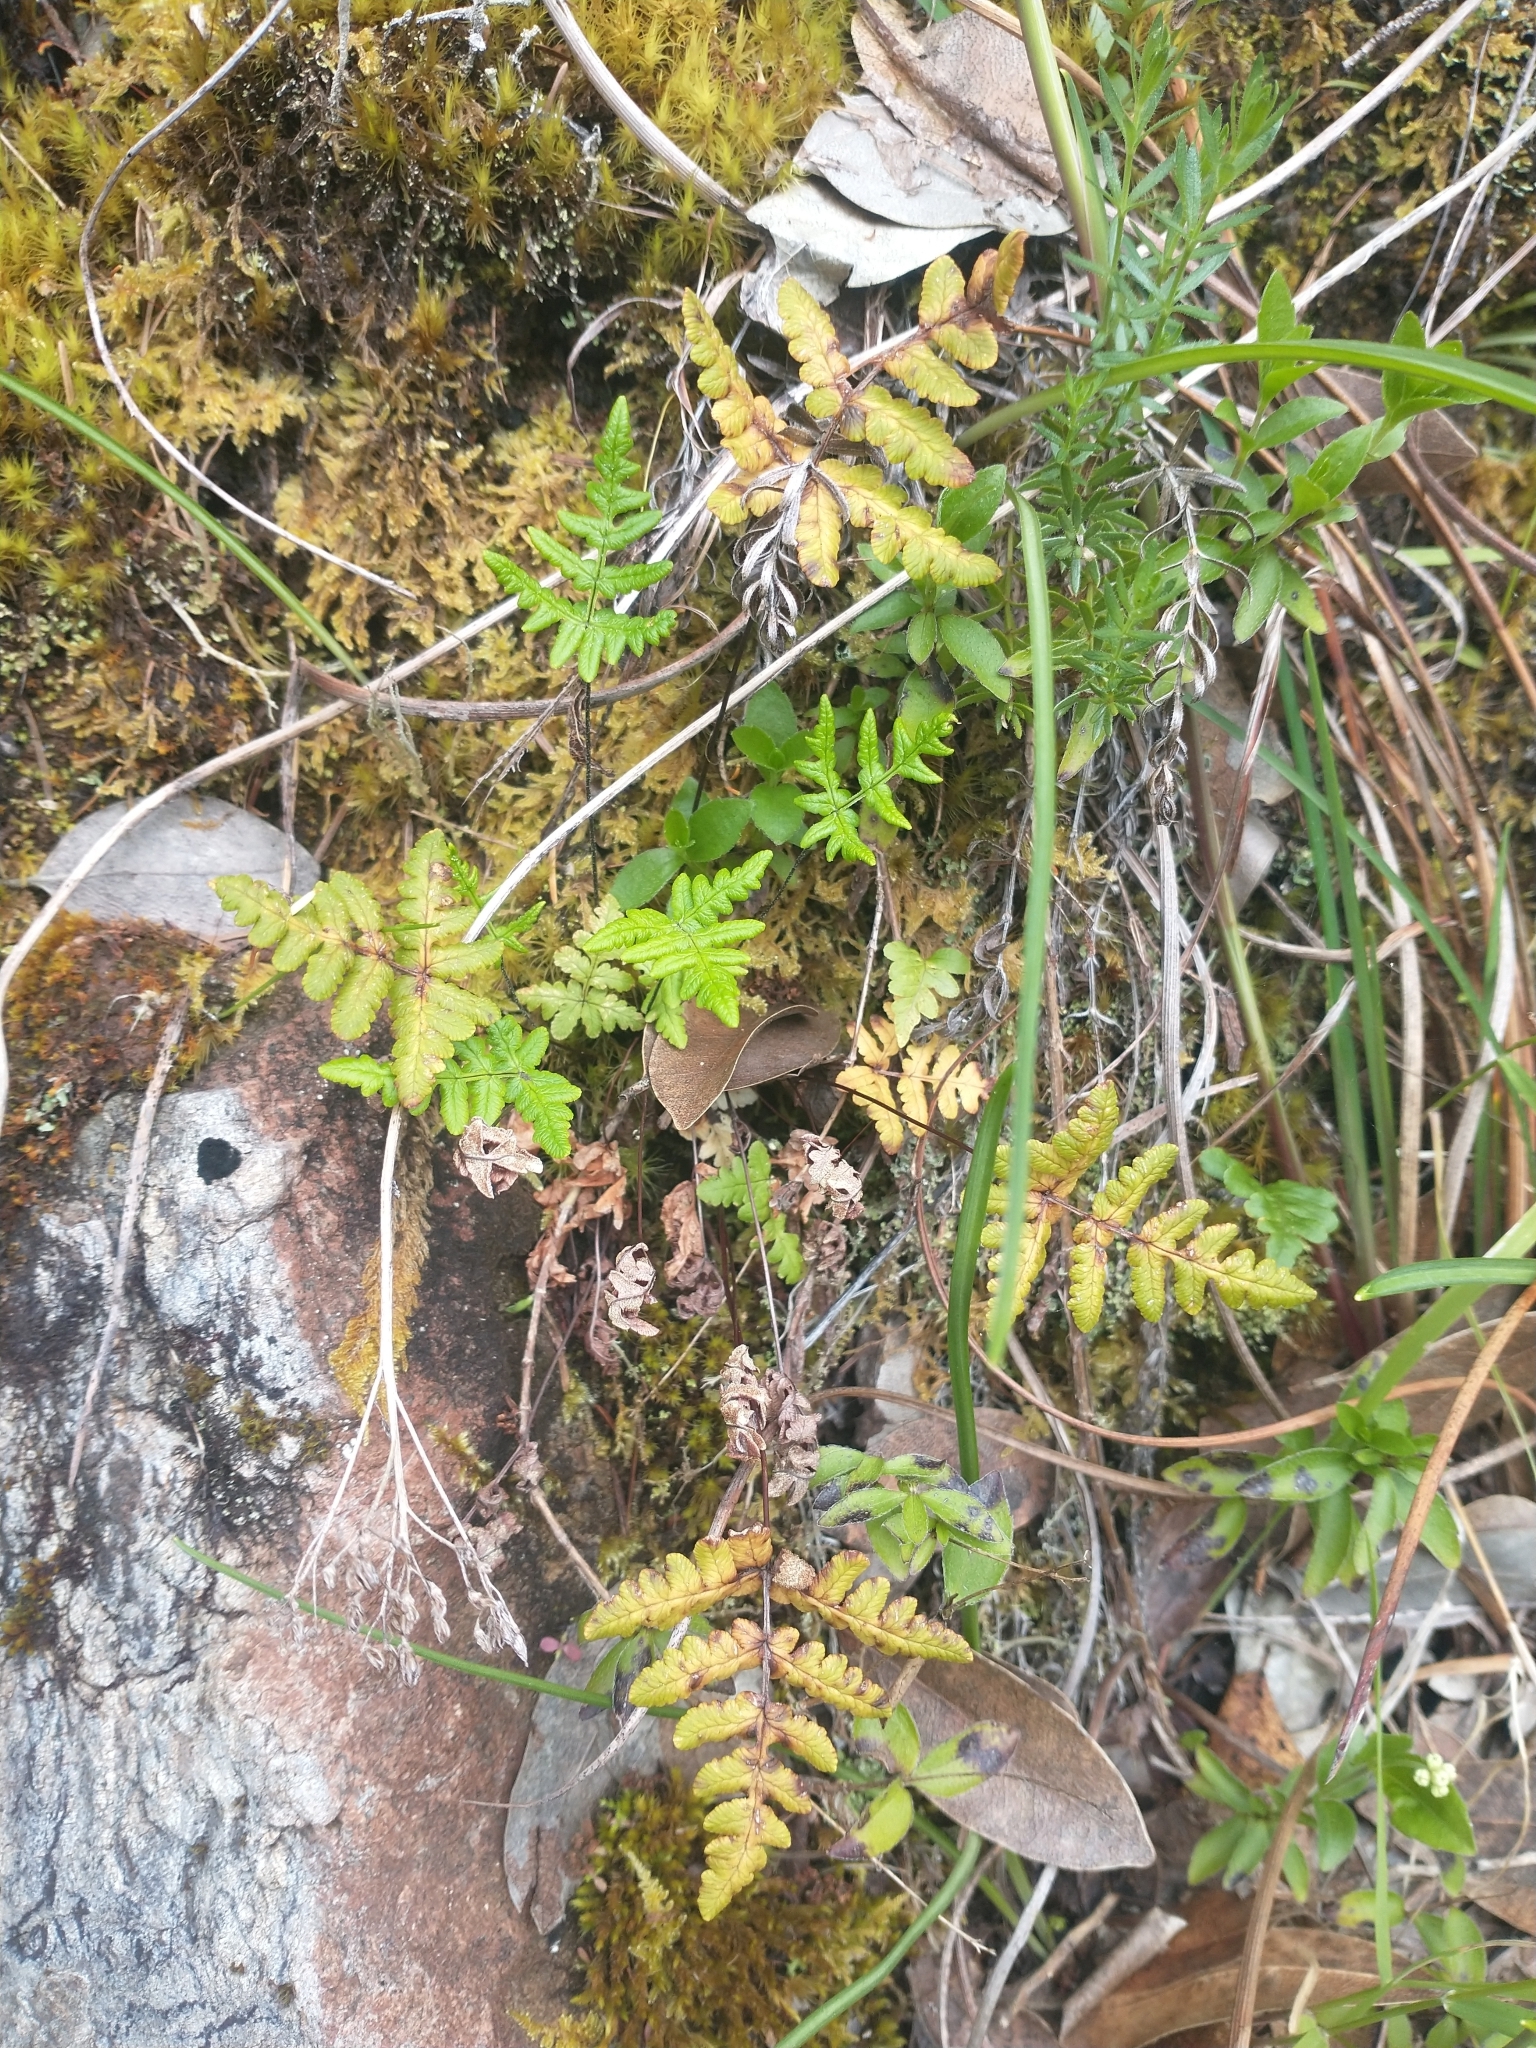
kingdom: Plantae
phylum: Tracheophyta
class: Polypodiopsida
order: Polypodiales
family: Pteridaceae
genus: Pentagramma
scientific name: Pentagramma triangularis
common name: Gold fern
